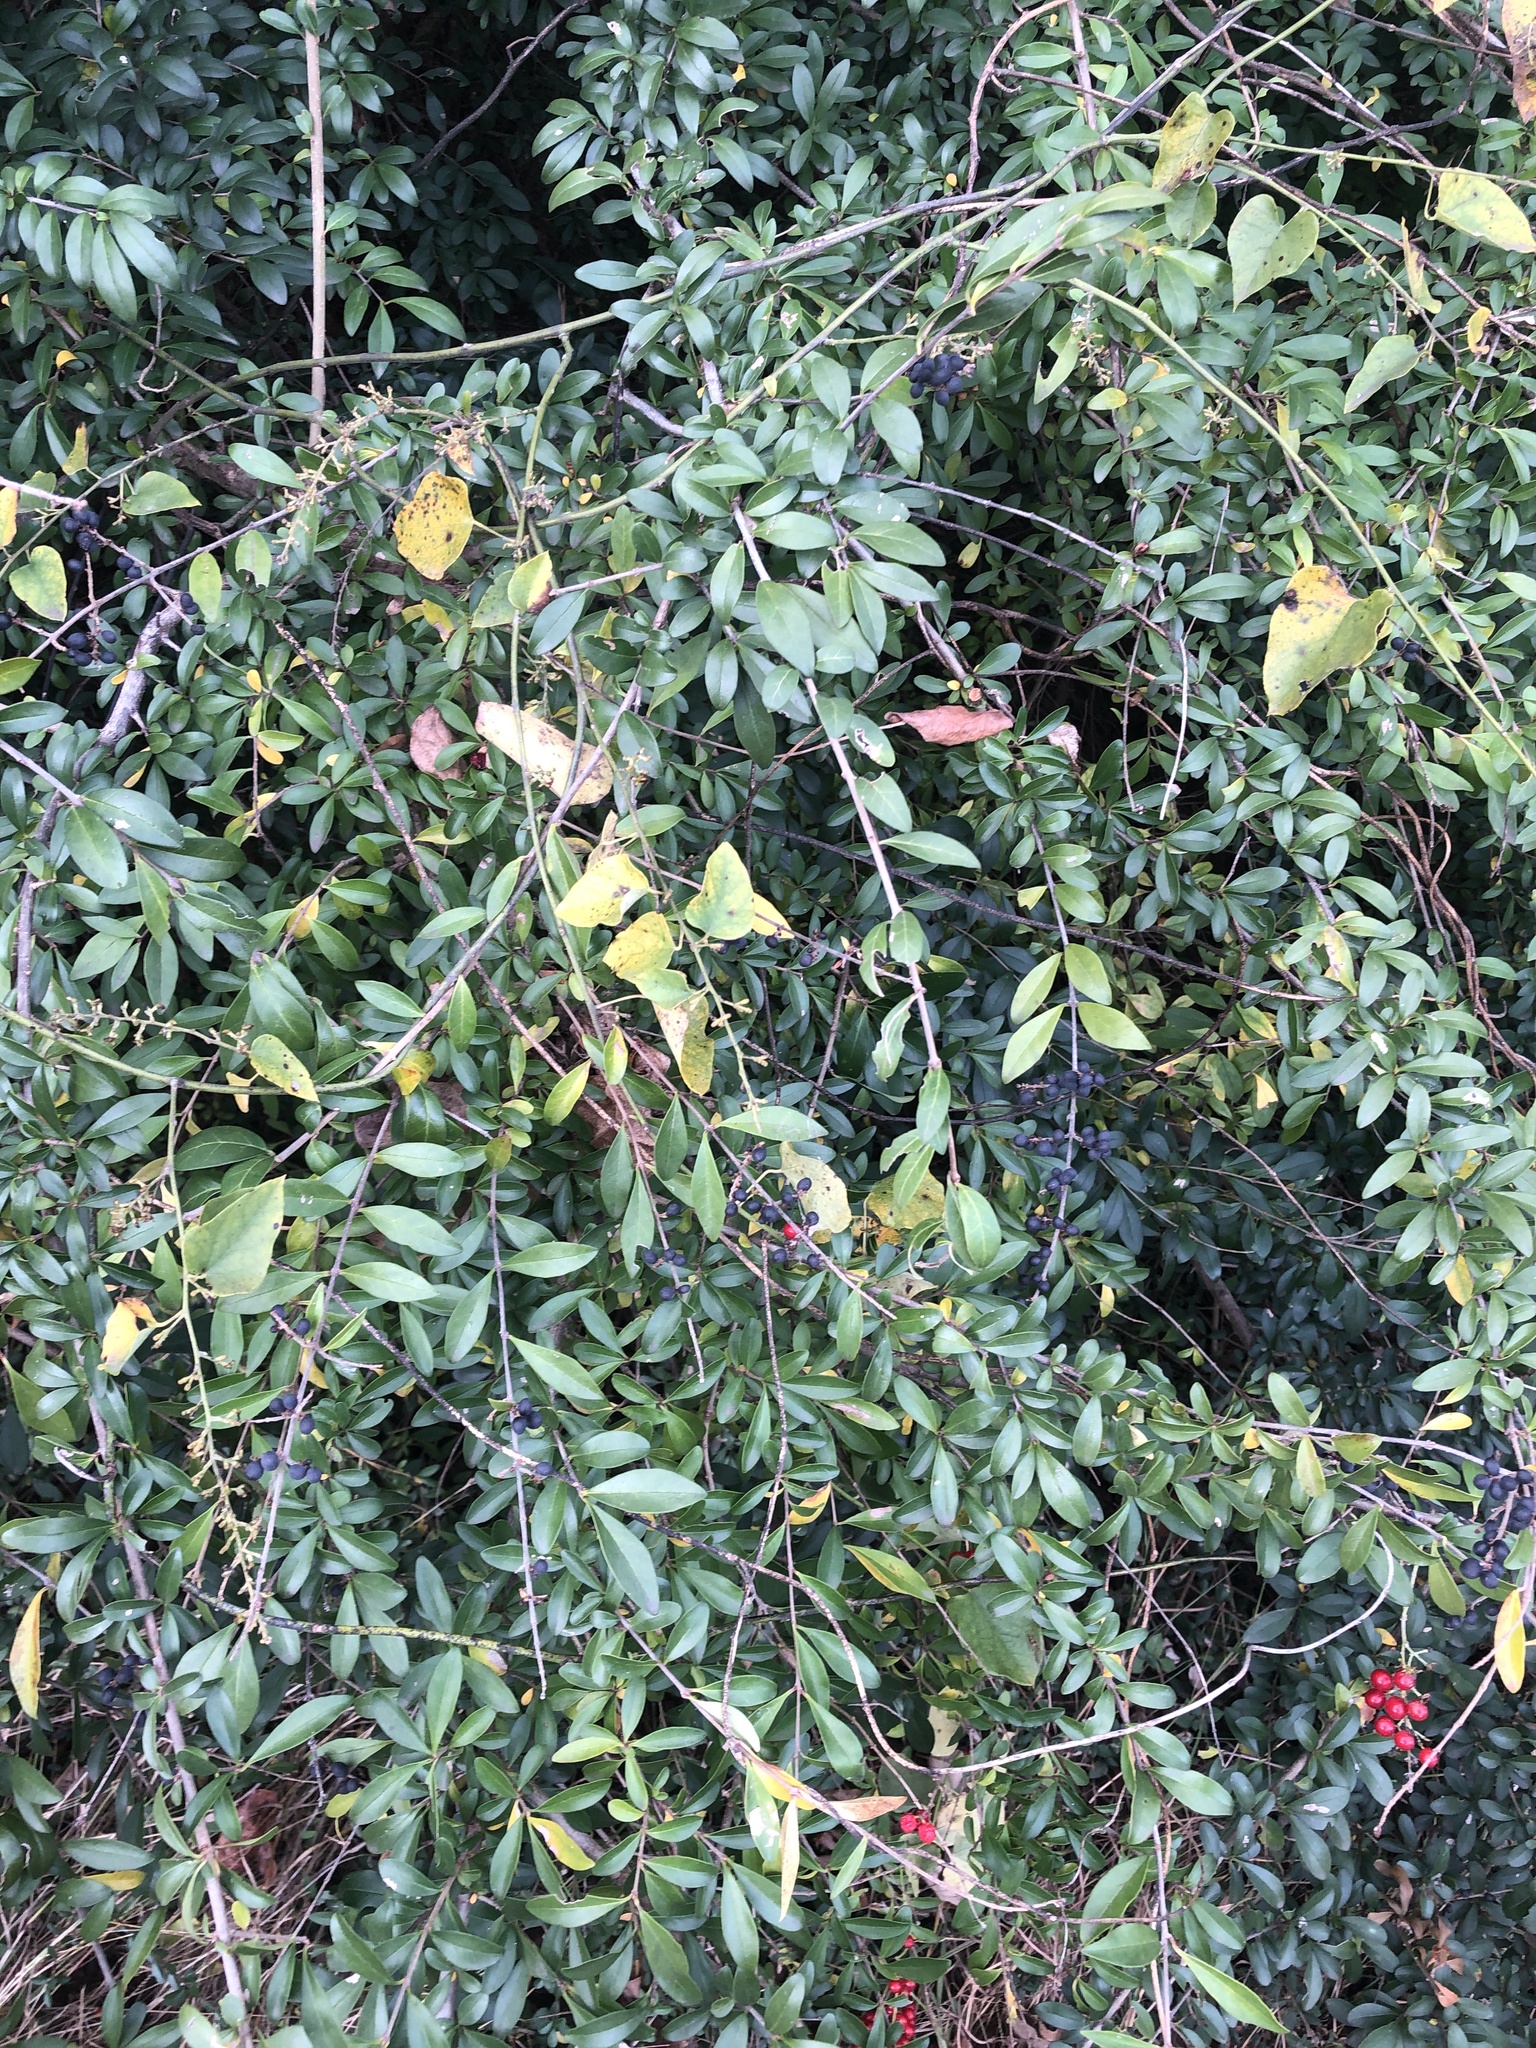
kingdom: Plantae
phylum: Tracheophyta
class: Magnoliopsida
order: Ranunculales
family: Menispermaceae
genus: Cocculus
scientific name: Cocculus carolinus
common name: Carolina moonseed
